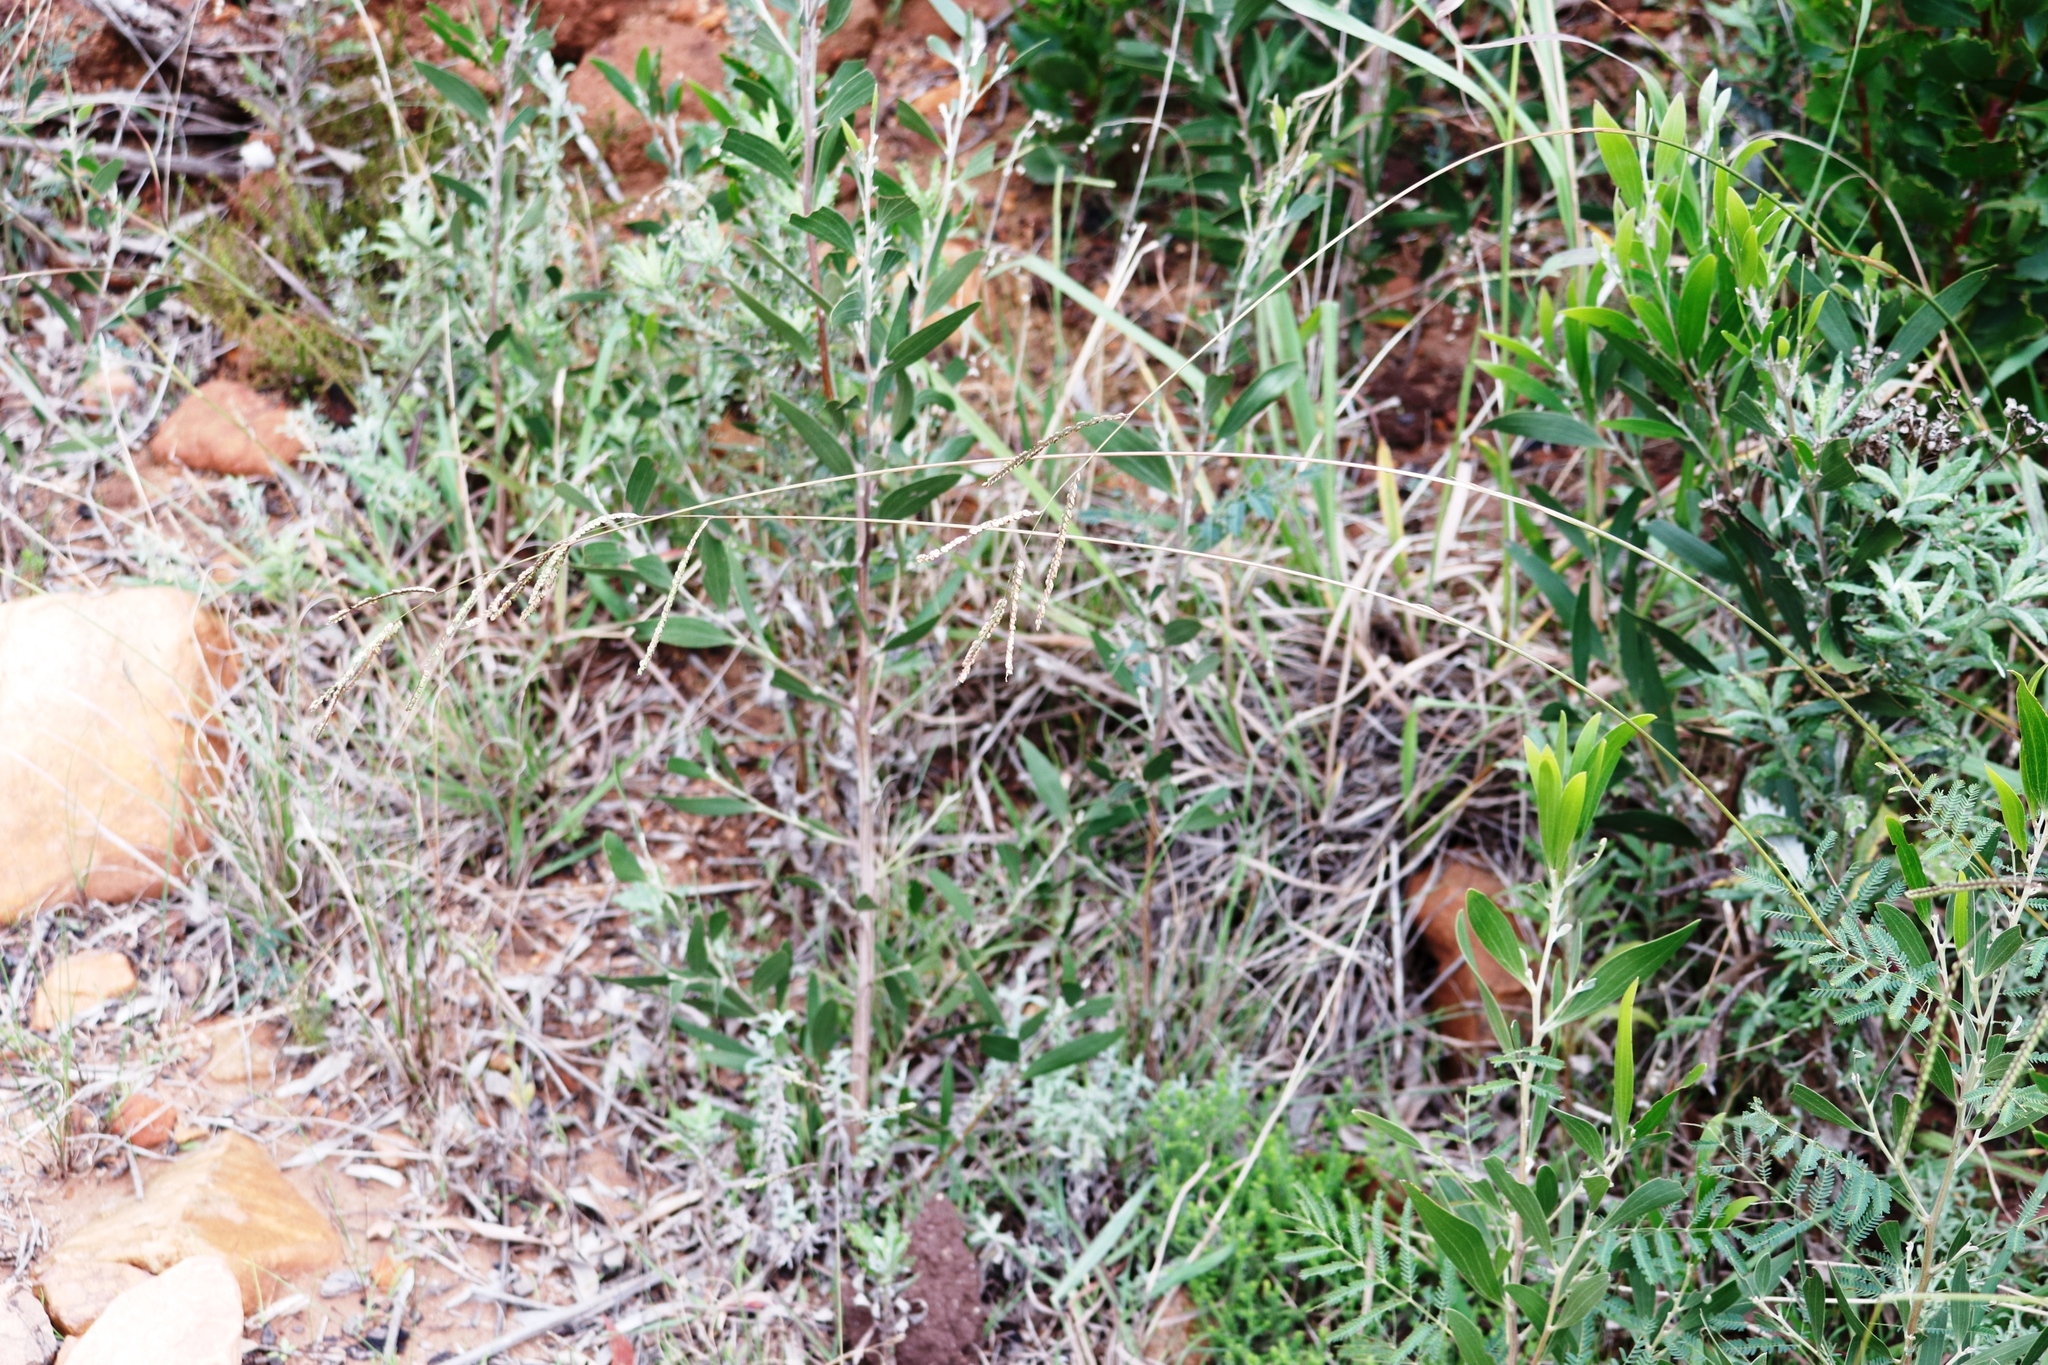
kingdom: Plantae
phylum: Tracheophyta
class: Liliopsida
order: Poales
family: Poaceae
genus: Paspalum
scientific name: Paspalum dilatatum
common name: Dallisgrass
